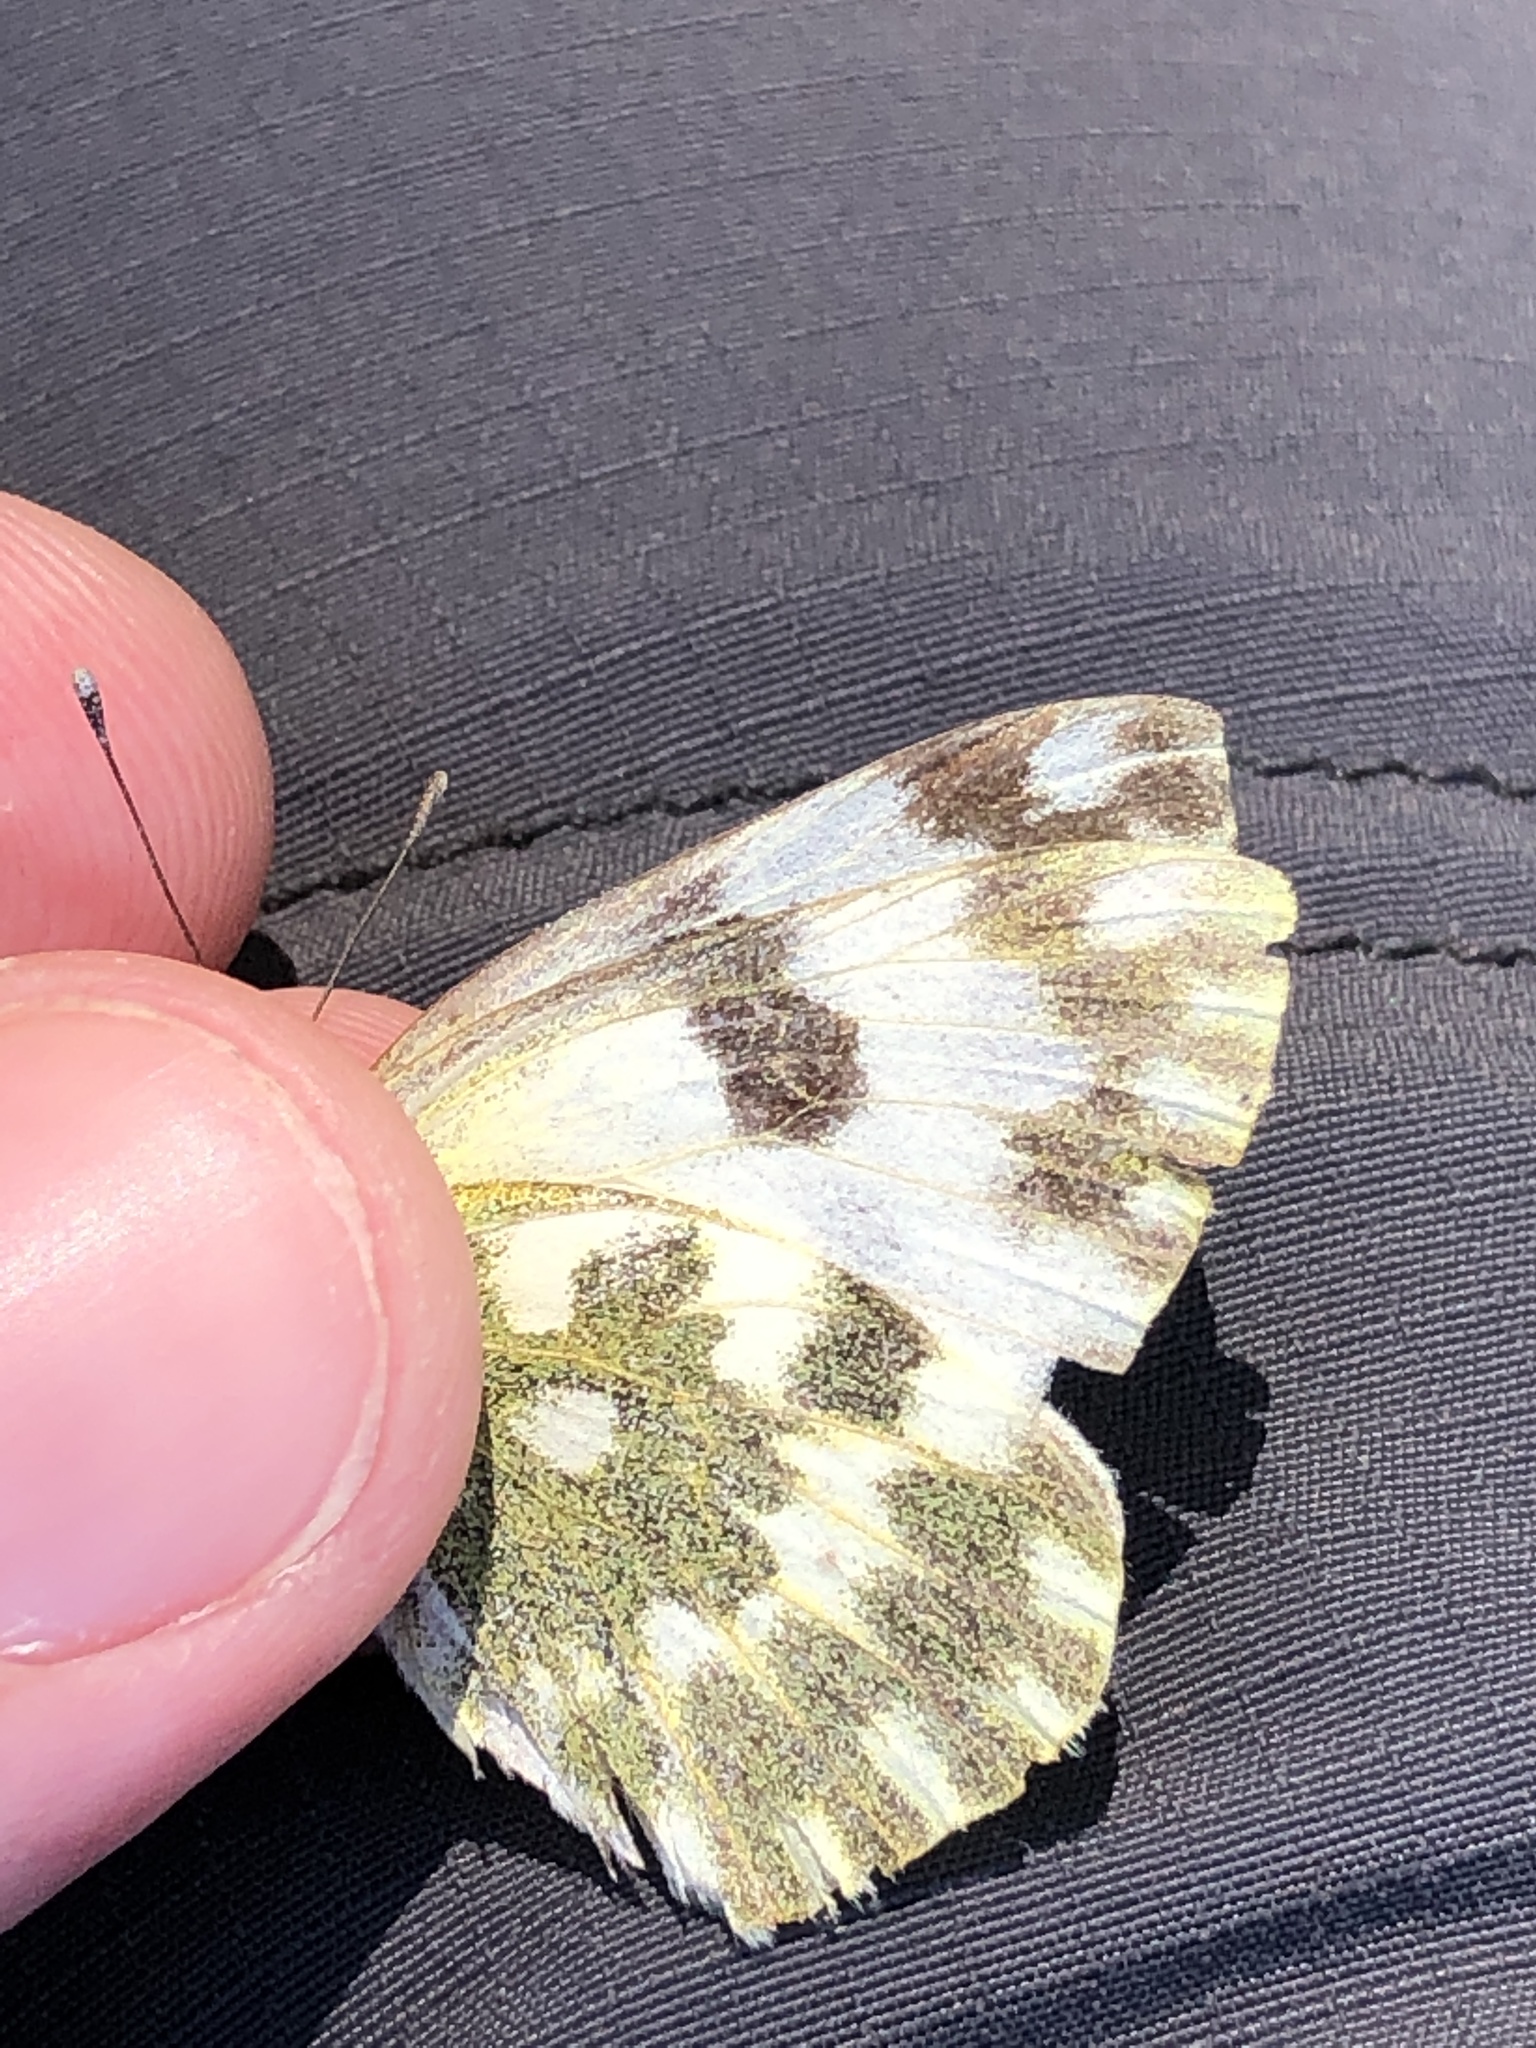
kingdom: Animalia
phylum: Arthropoda
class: Insecta
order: Lepidoptera
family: Pieridae
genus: Pontia
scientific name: Pontia edusa
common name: Eastern bath white
